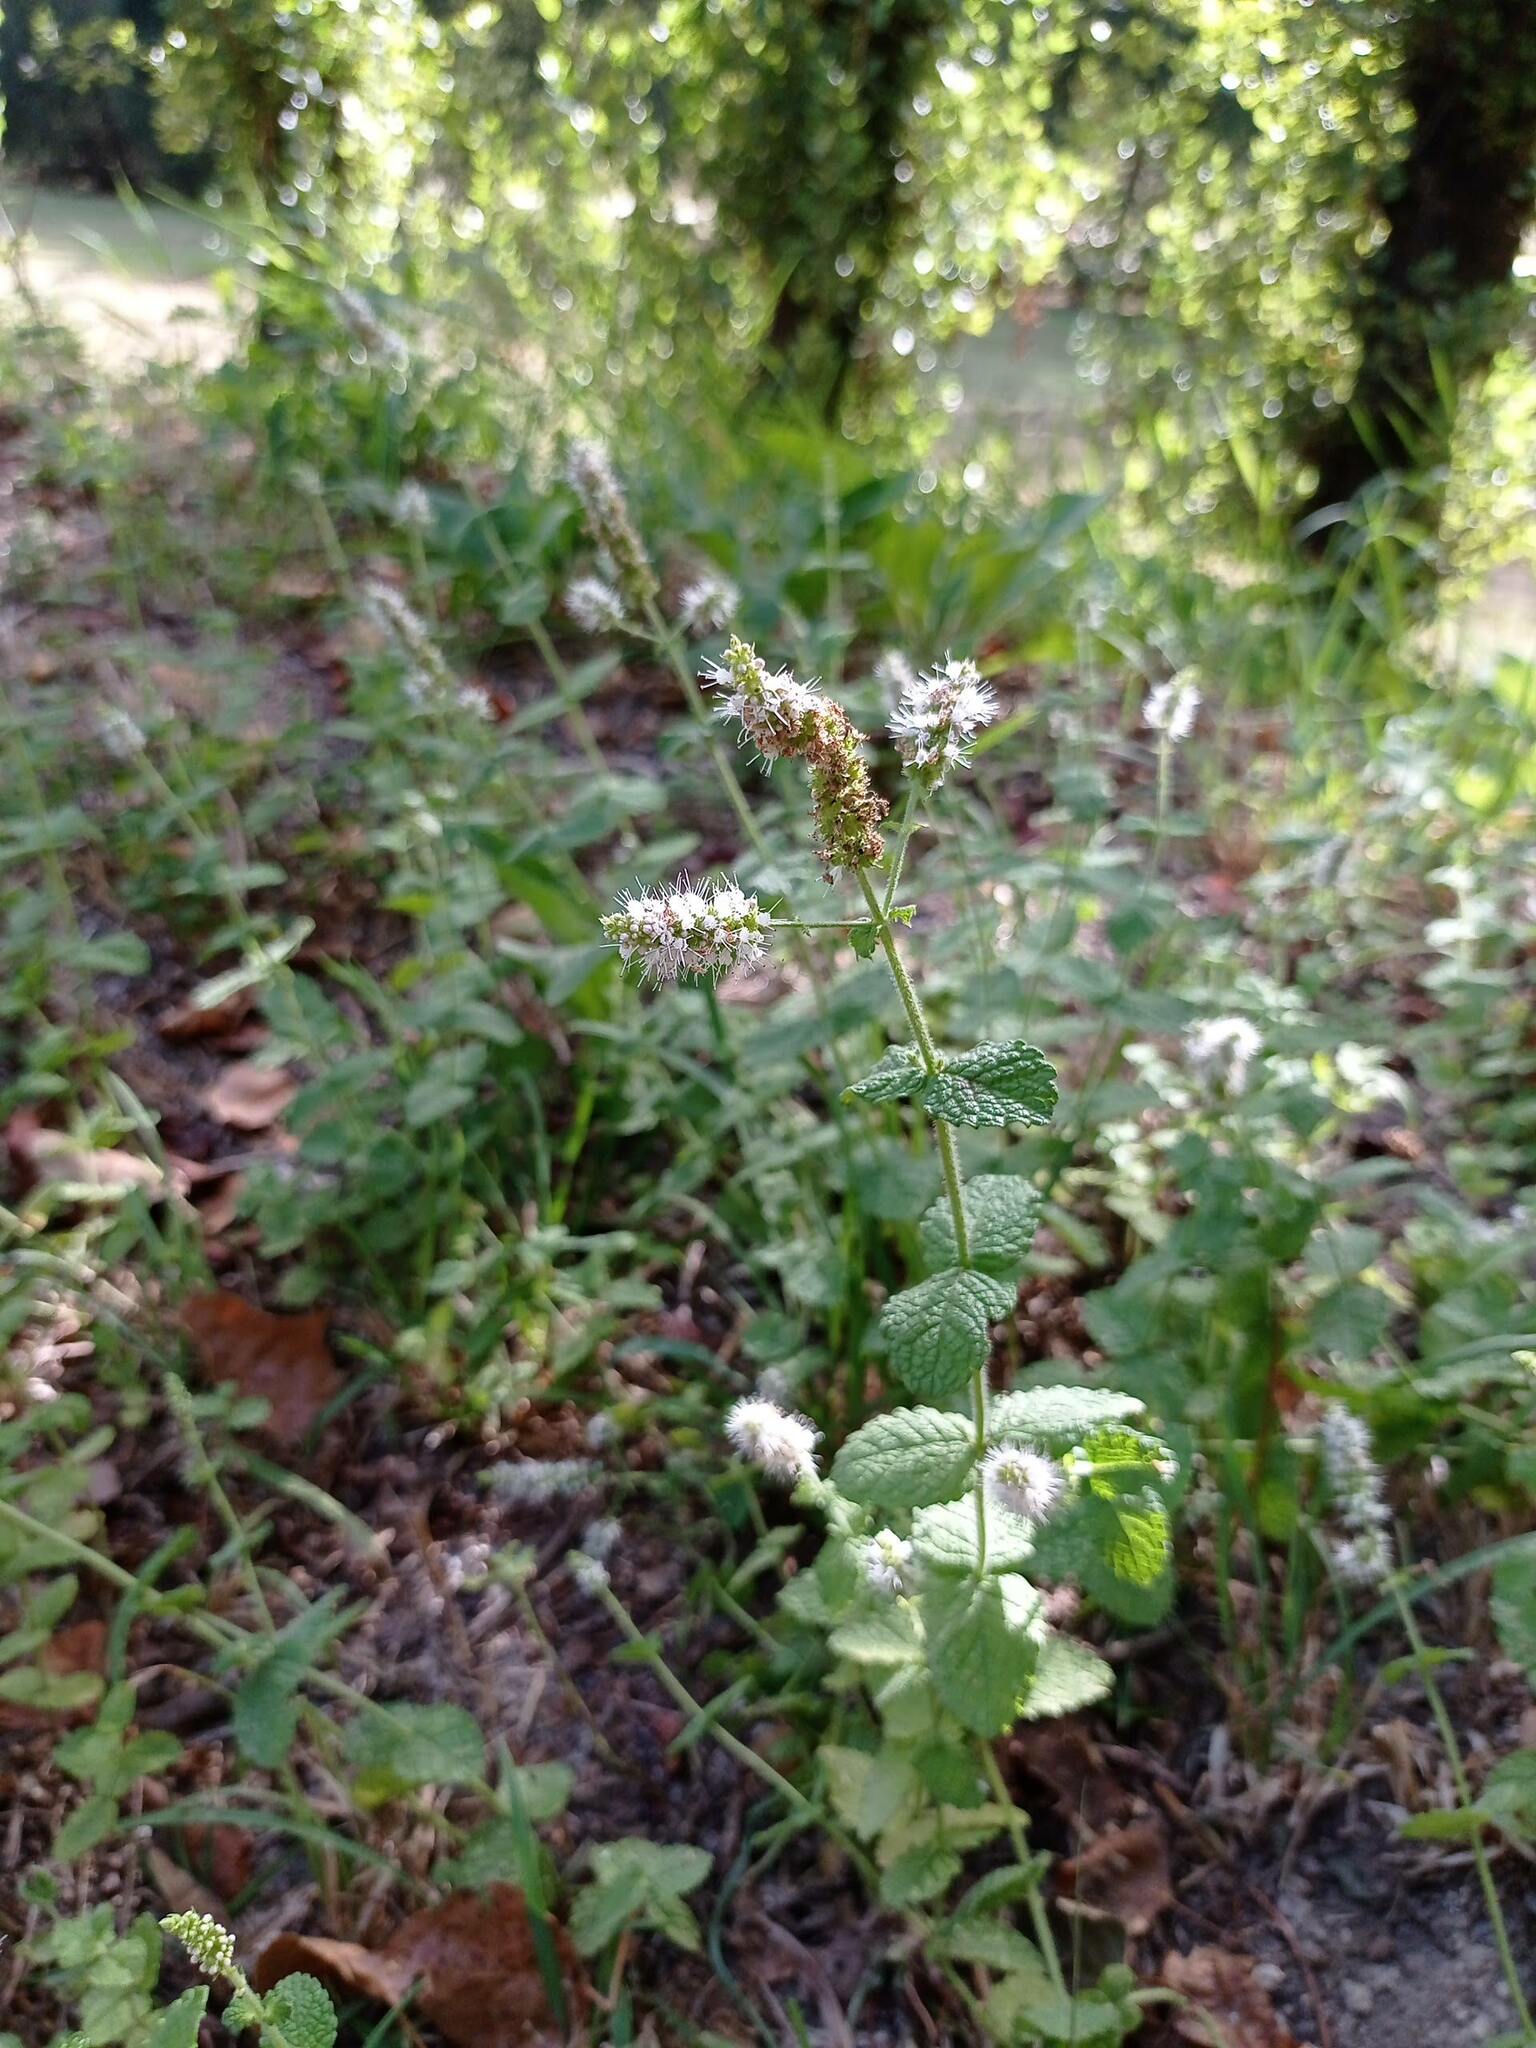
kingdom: Plantae
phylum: Tracheophyta
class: Magnoliopsida
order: Lamiales
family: Lamiaceae
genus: Mentha
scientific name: Mentha suaveolens
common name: Apple mint
